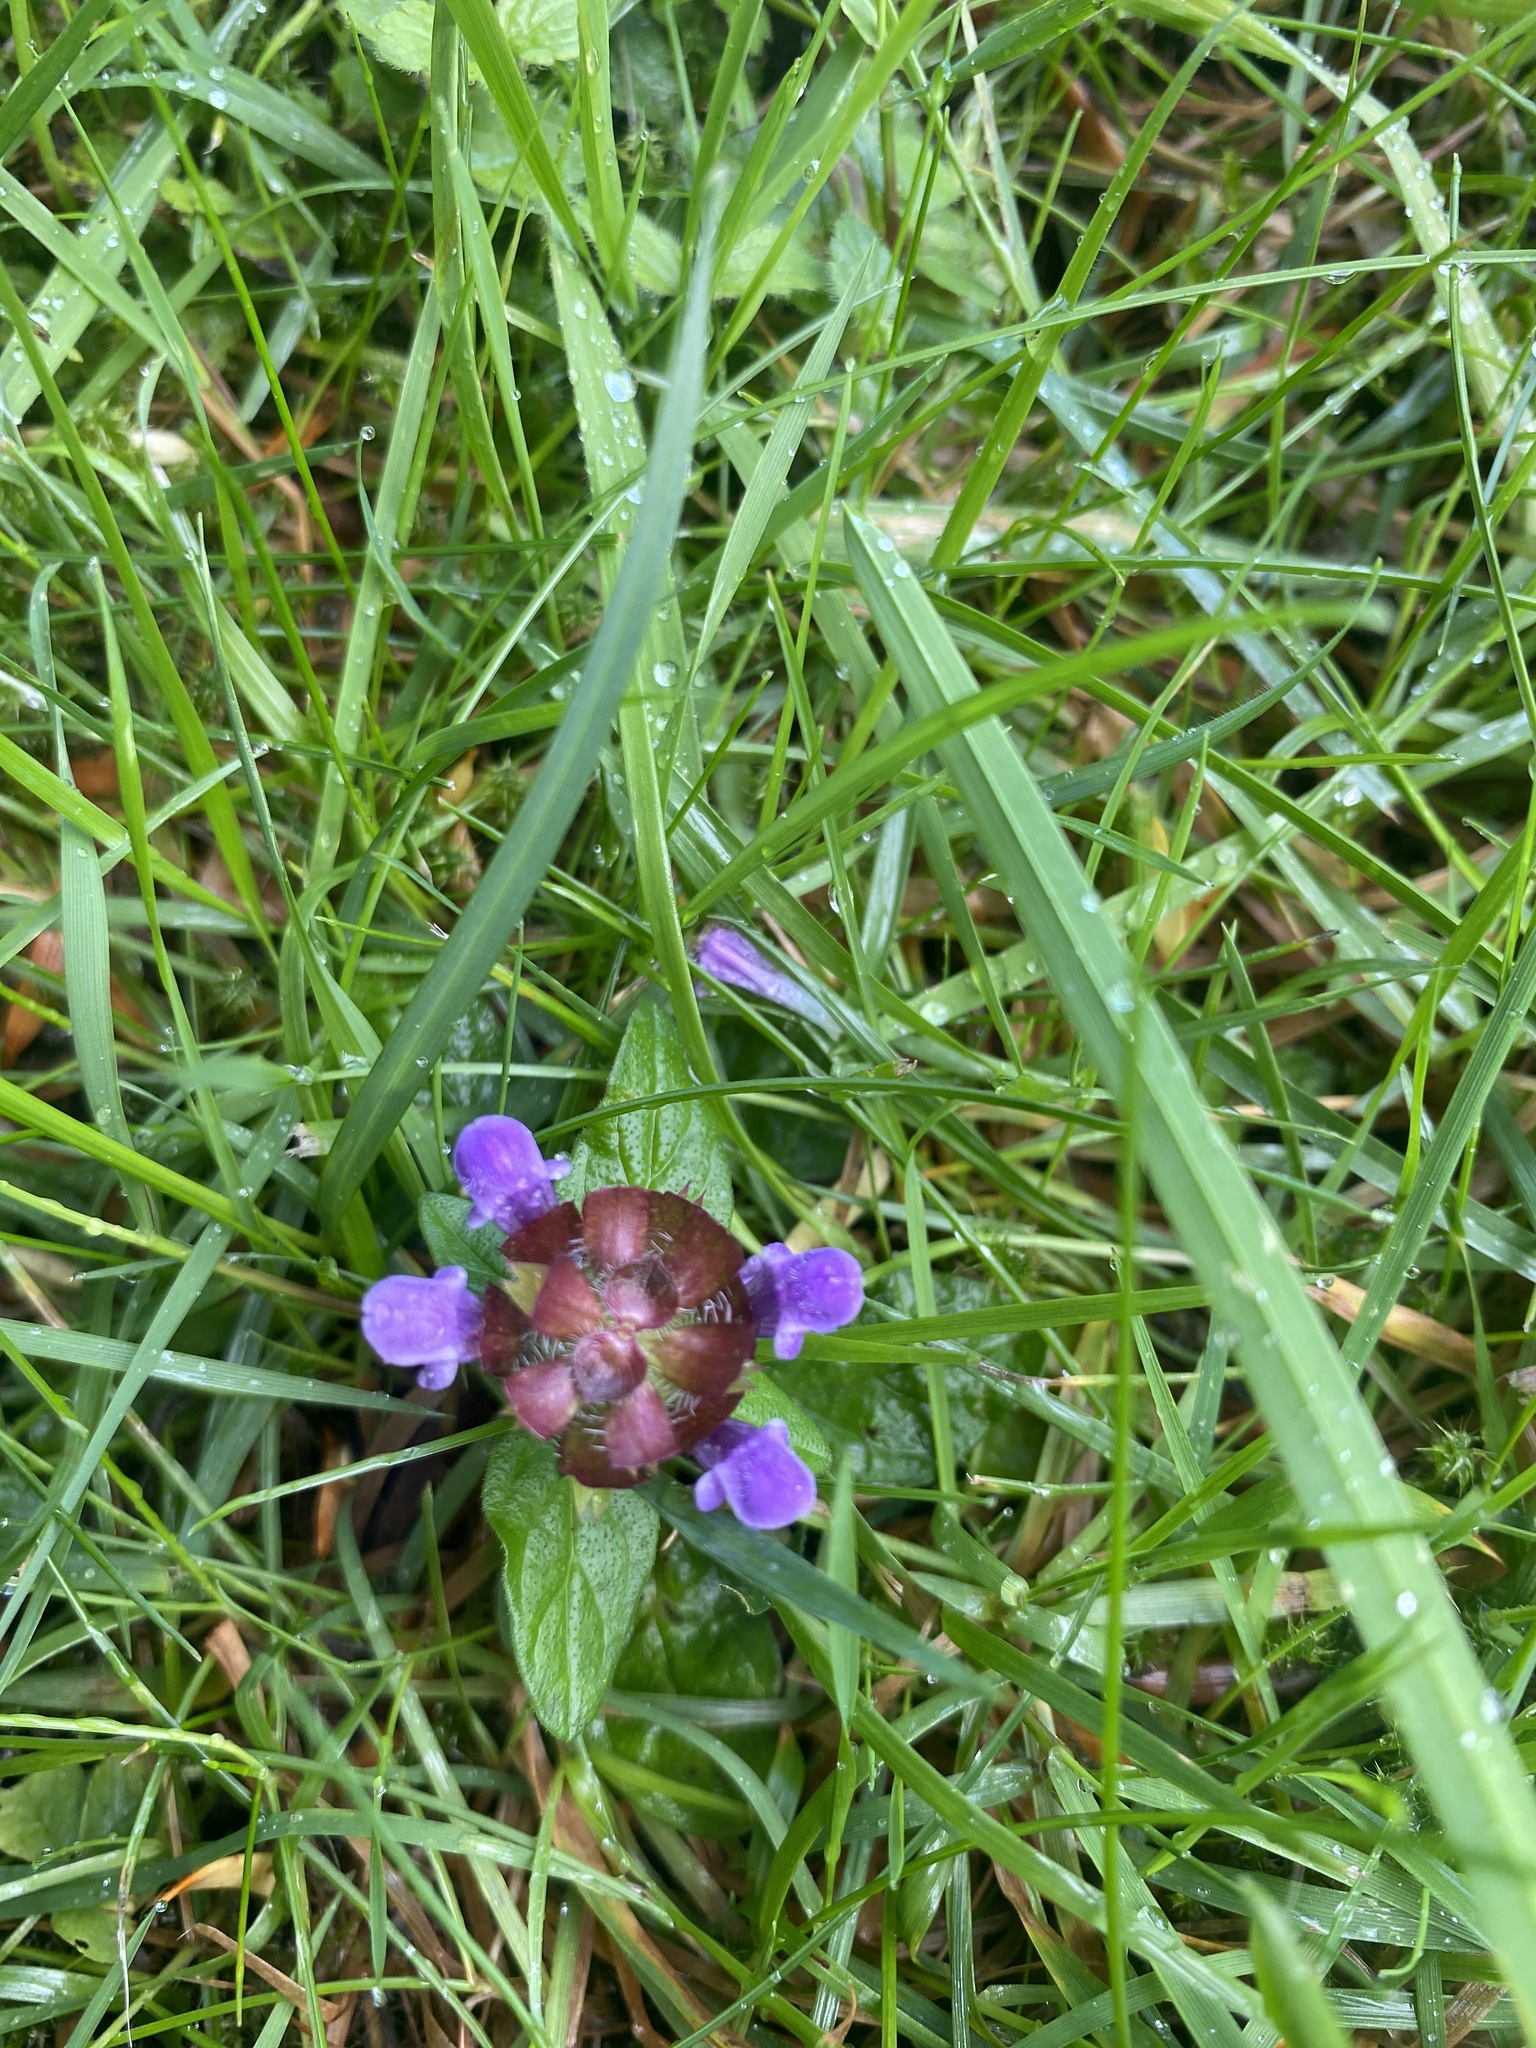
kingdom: Plantae
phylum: Tracheophyta
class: Magnoliopsida
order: Lamiales
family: Lamiaceae
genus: Prunella
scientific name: Prunella vulgaris
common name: Heal-all
